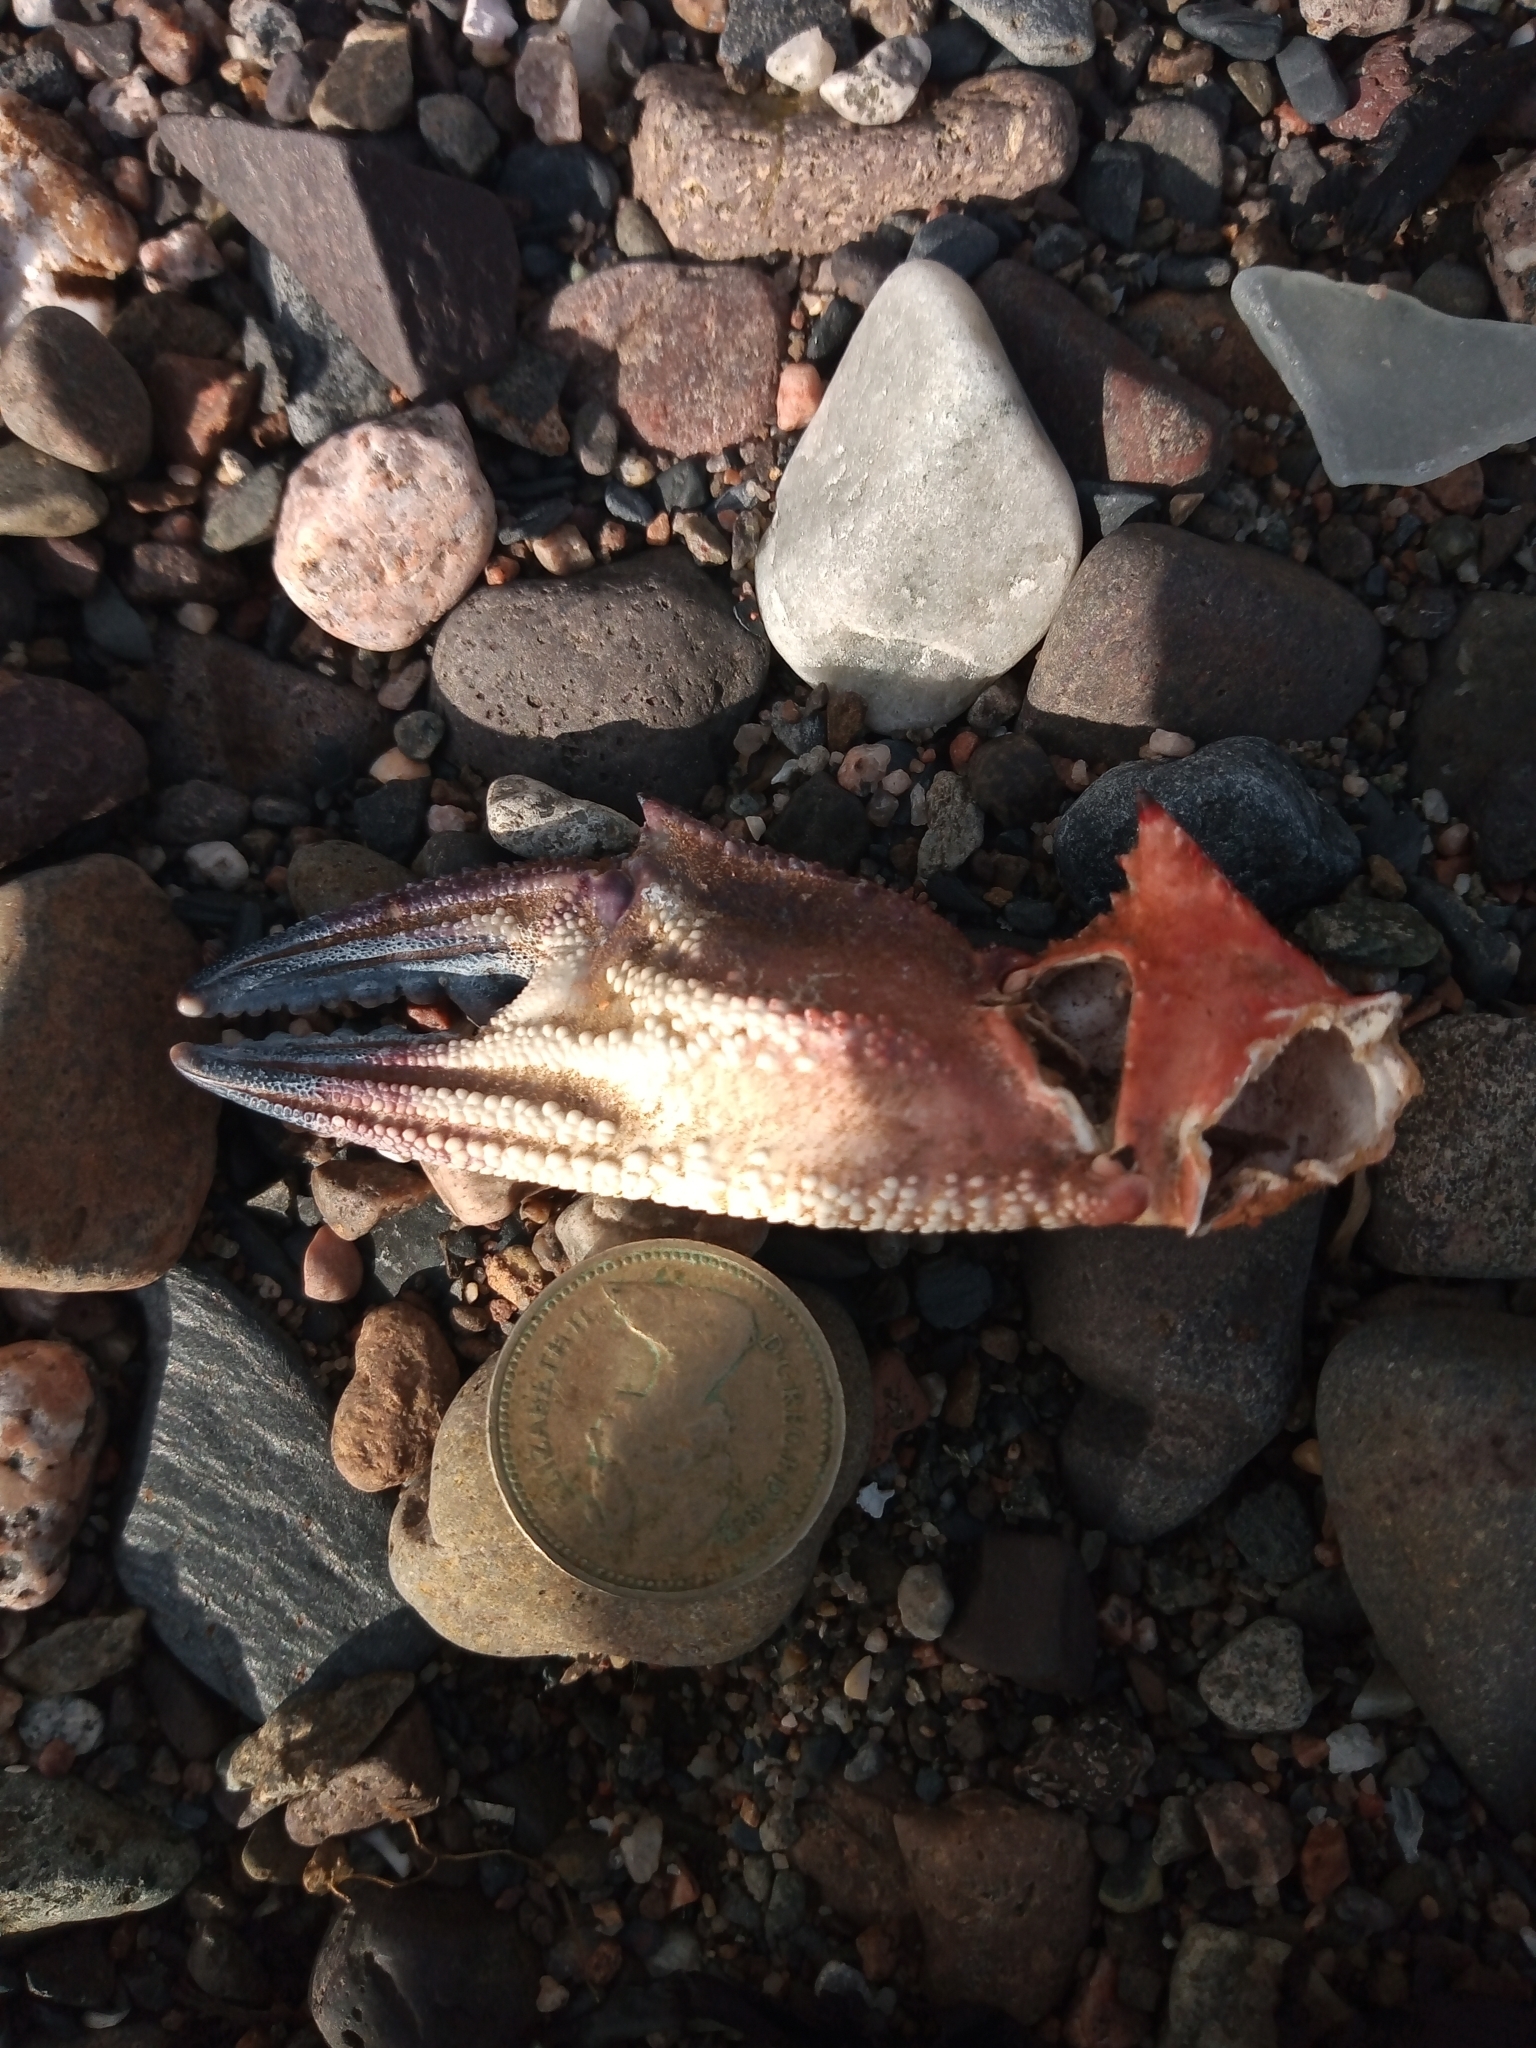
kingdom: Animalia
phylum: Arthropoda
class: Malacostraca
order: Decapoda
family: Polybiidae
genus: Necora
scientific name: Necora puber
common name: Velvet swimming crab
